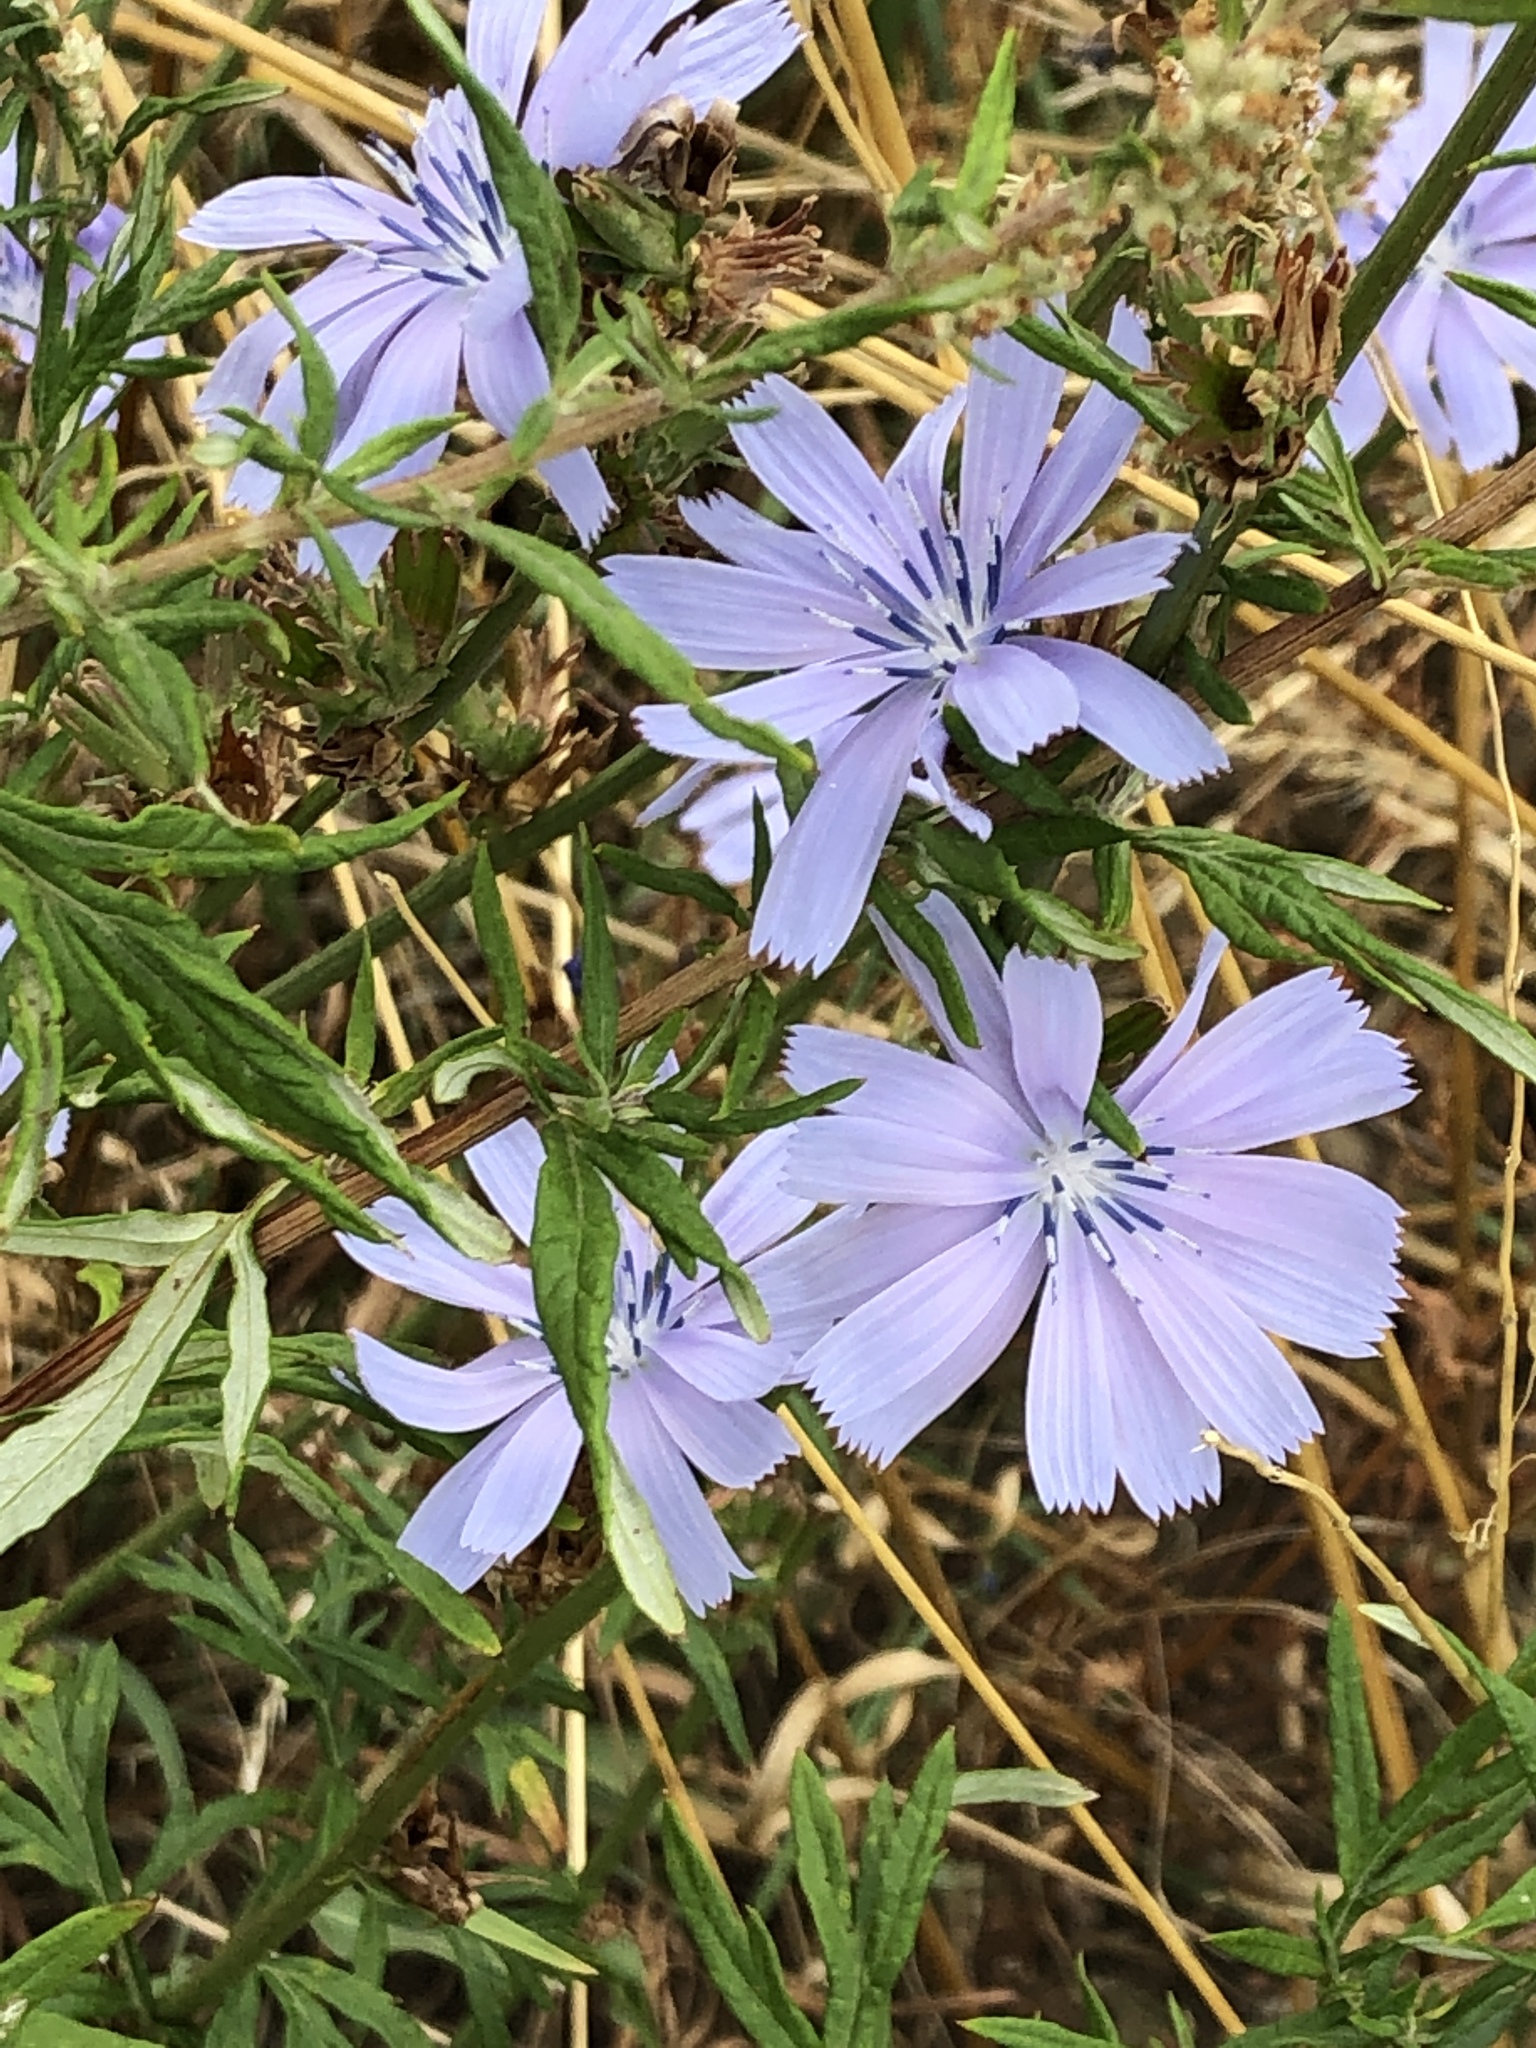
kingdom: Plantae
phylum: Tracheophyta
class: Magnoliopsida
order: Asterales
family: Asteraceae
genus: Cichorium
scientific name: Cichorium intybus
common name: Chicory
